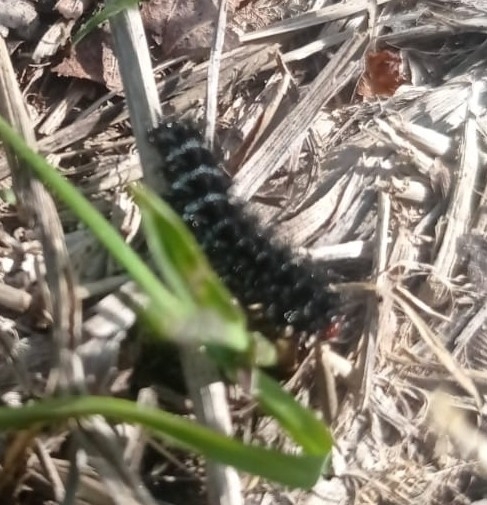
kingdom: Animalia
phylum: Arthropoda
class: Insecta
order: Lepidoptera
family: Nymphalidae
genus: Melitaea
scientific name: Melitaea cinxia
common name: Glanville fritillary
